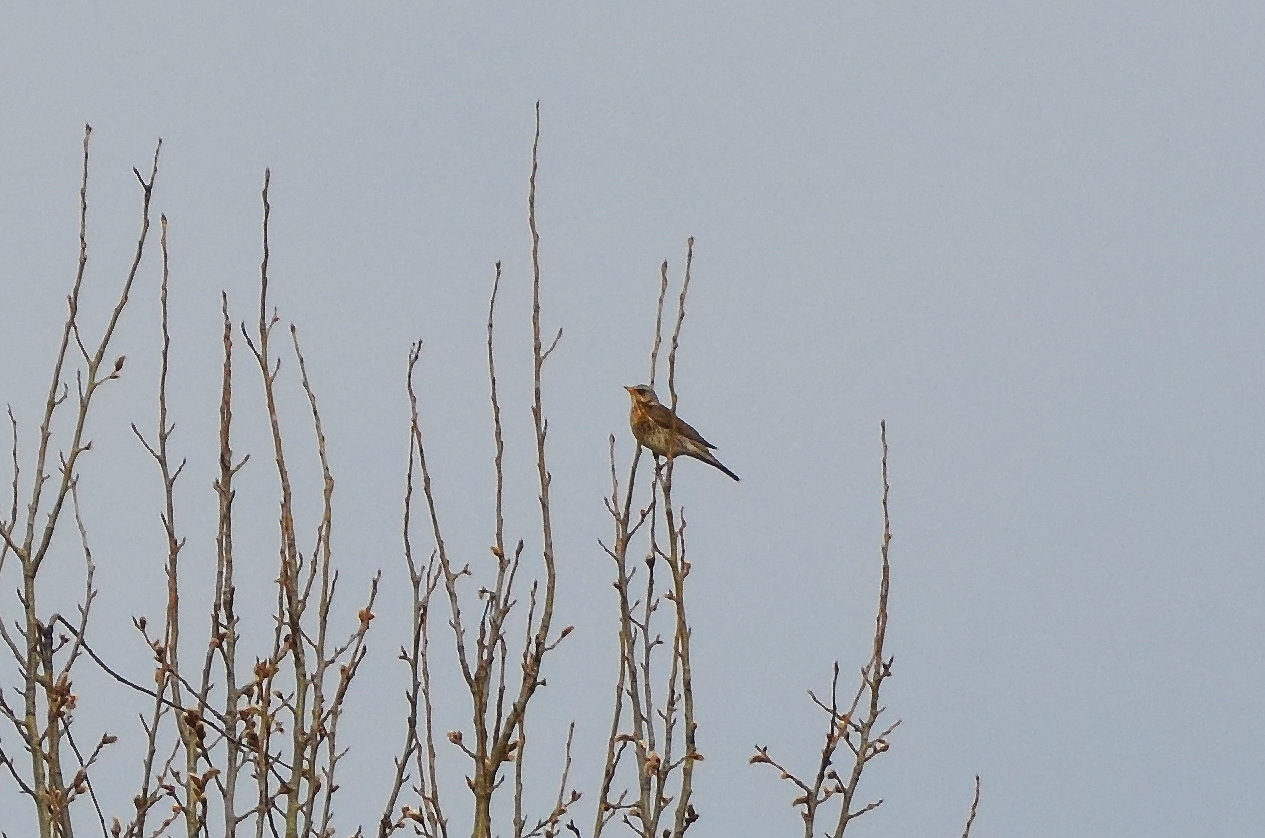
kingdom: Animalia
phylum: Chordata
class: Aves
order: Passeriformes
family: Turdidae
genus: Turdus
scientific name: Turdus pilaris
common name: Fieldfare
